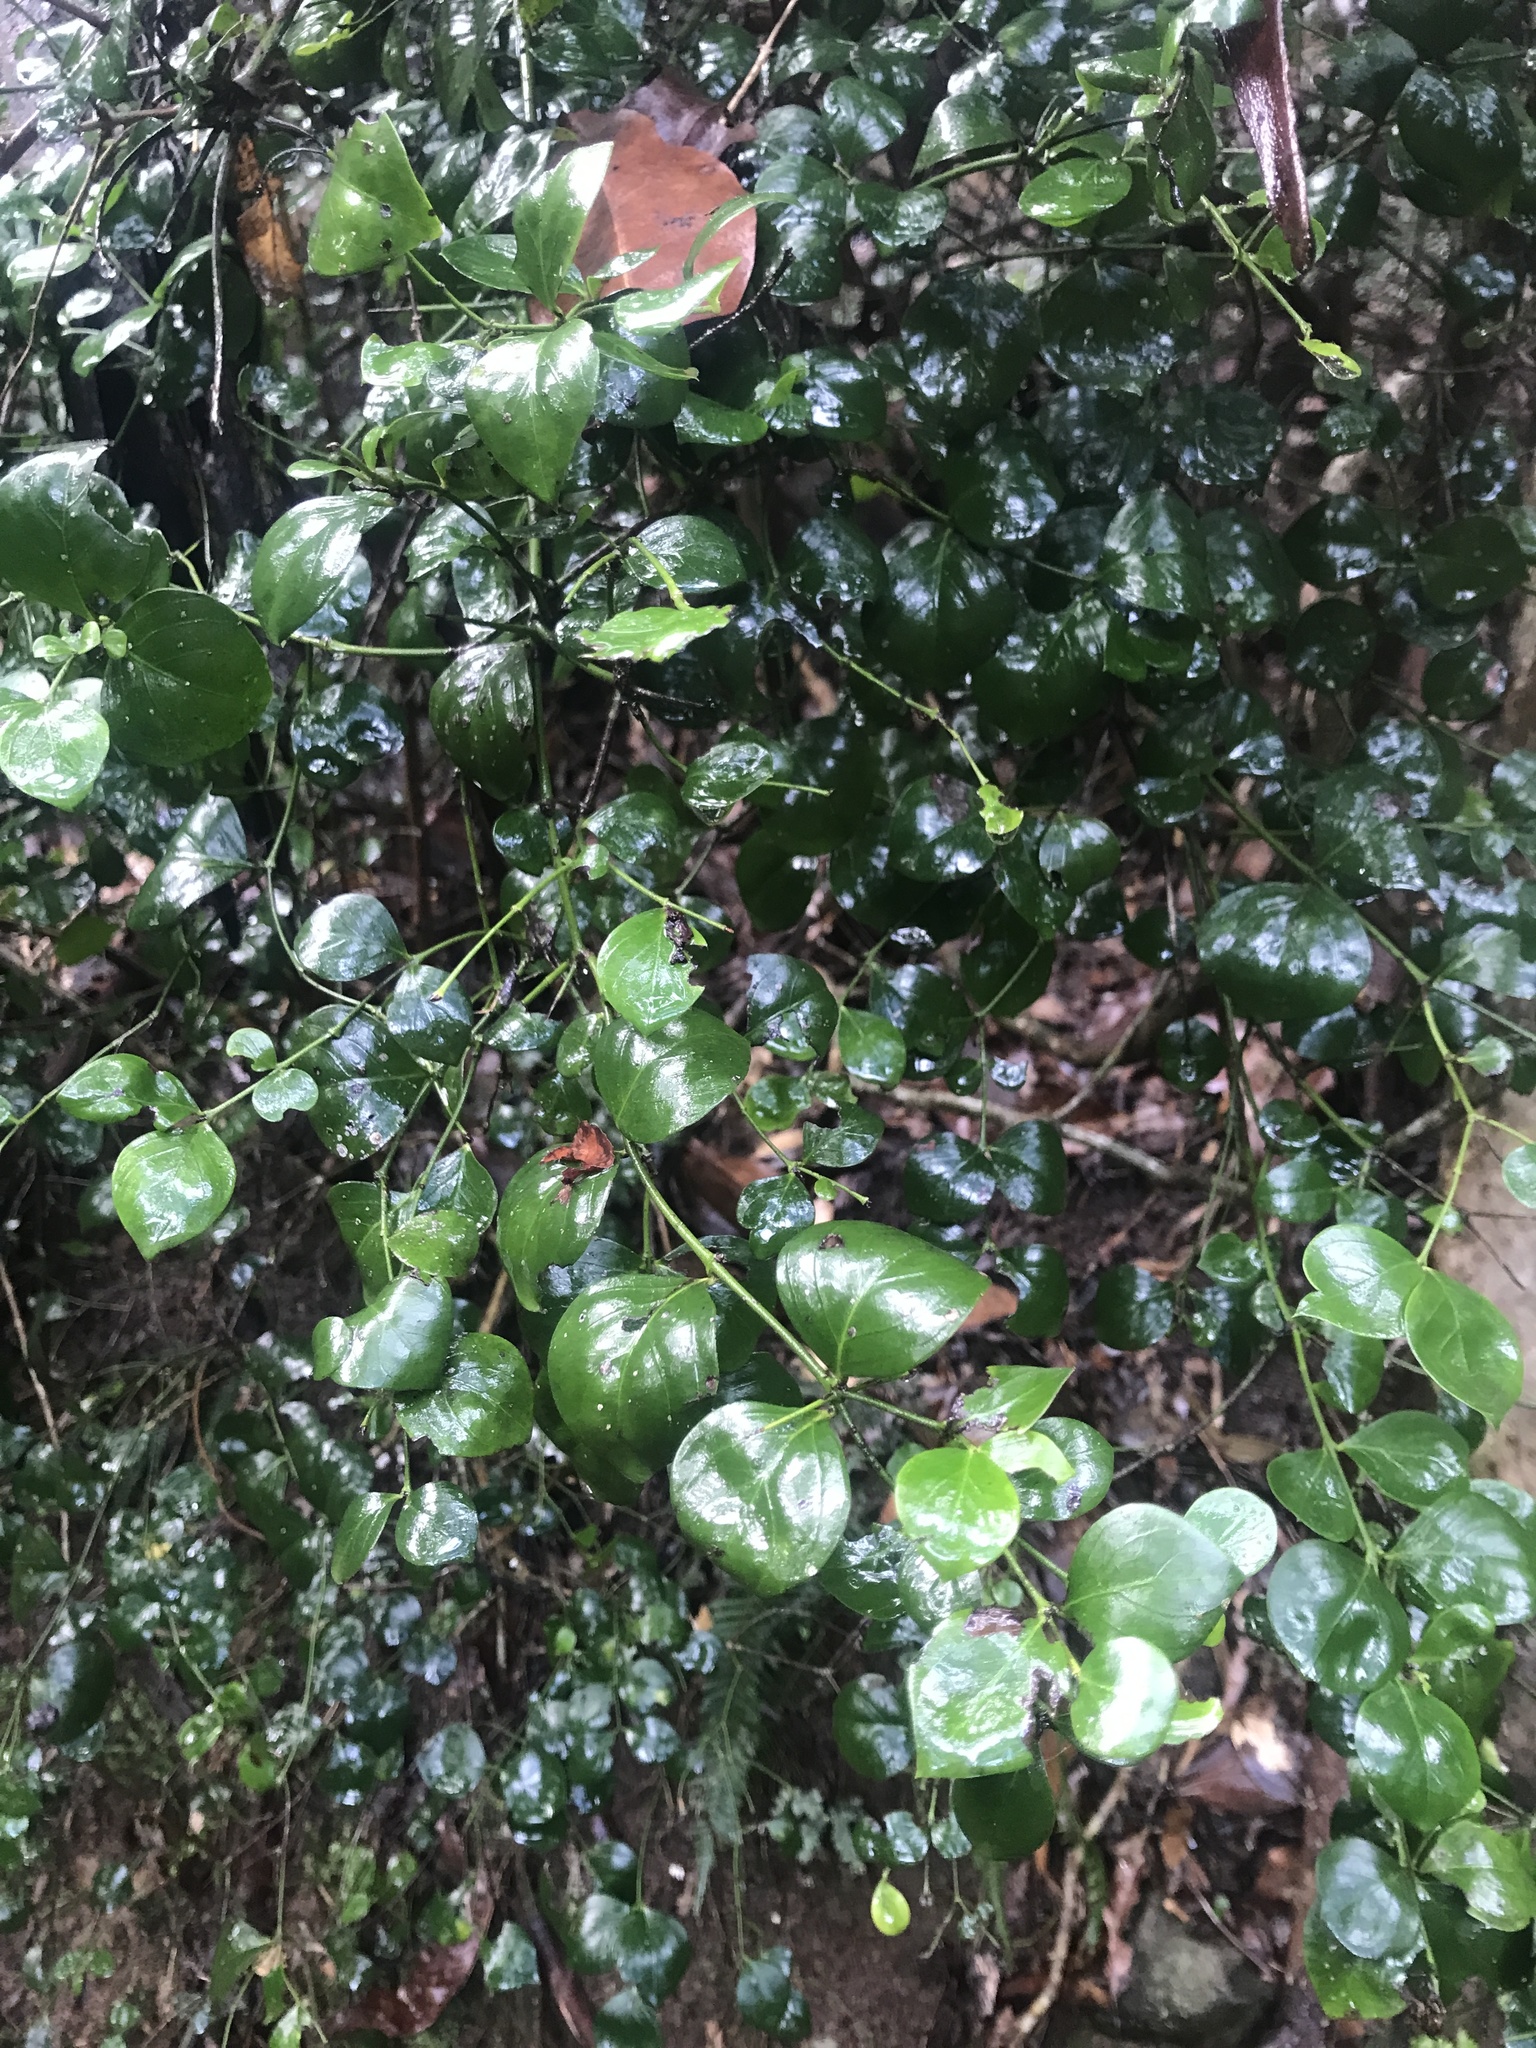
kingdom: Plantae
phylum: Tracheophyta
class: Magnoliopsida
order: Gentianales
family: Apocynaceae
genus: Carissa
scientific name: Carissa ovata
